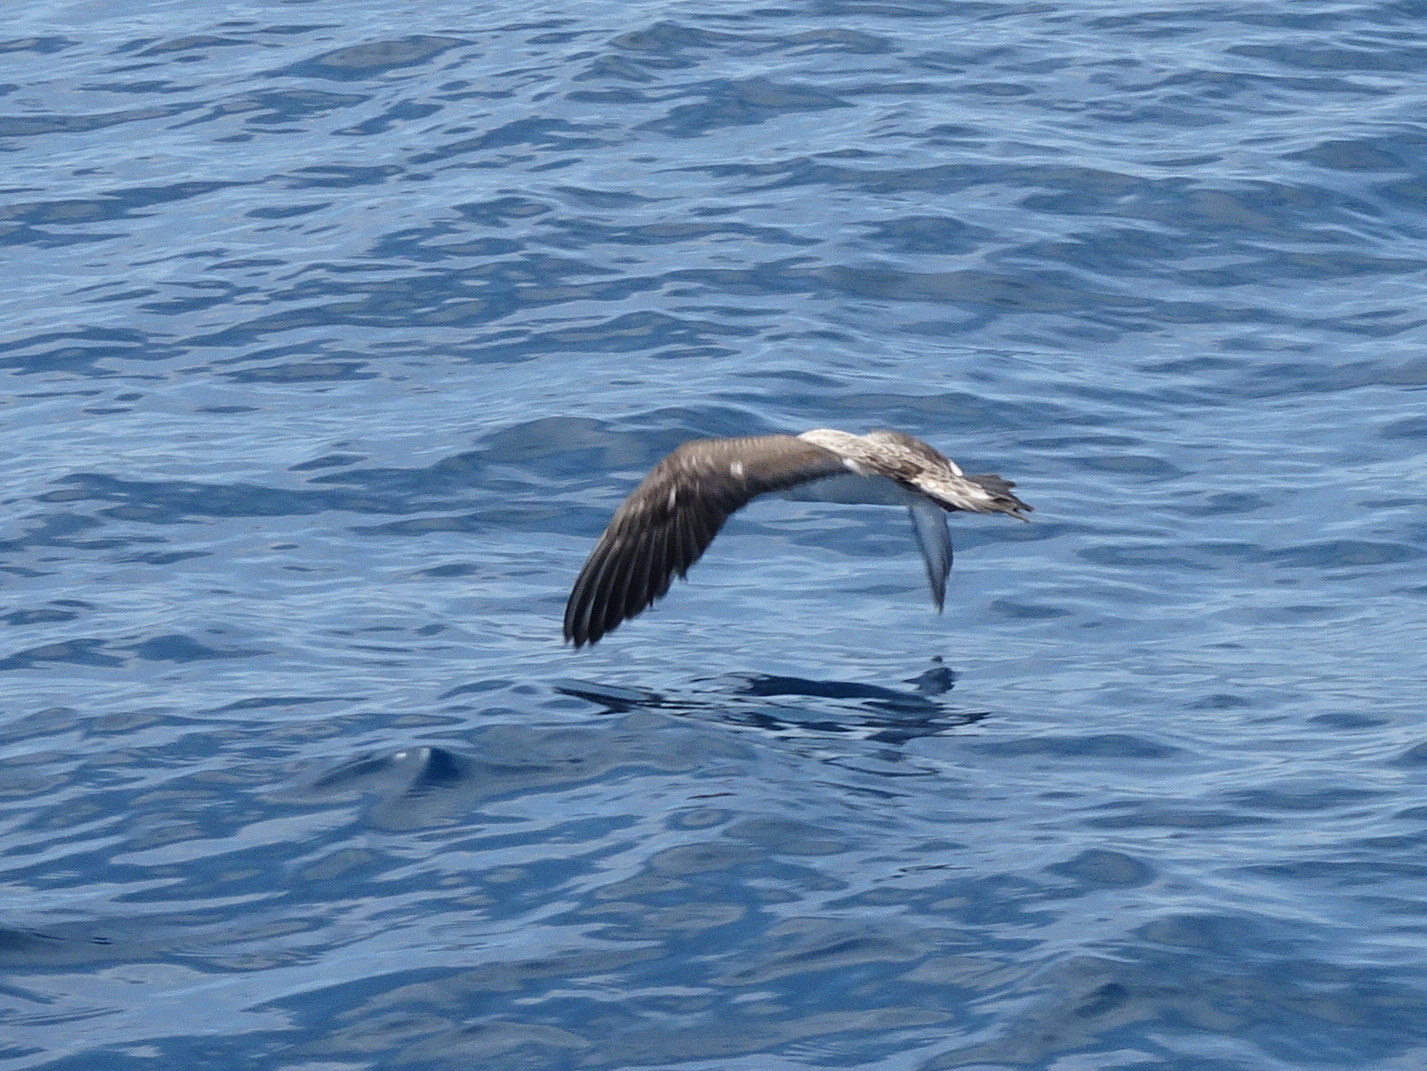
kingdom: Animalia
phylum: Chordata
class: Aves
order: Procellariiformes
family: Procellariidae
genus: Calonectris
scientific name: Calonectris diomedea
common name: Cory's shearwater
